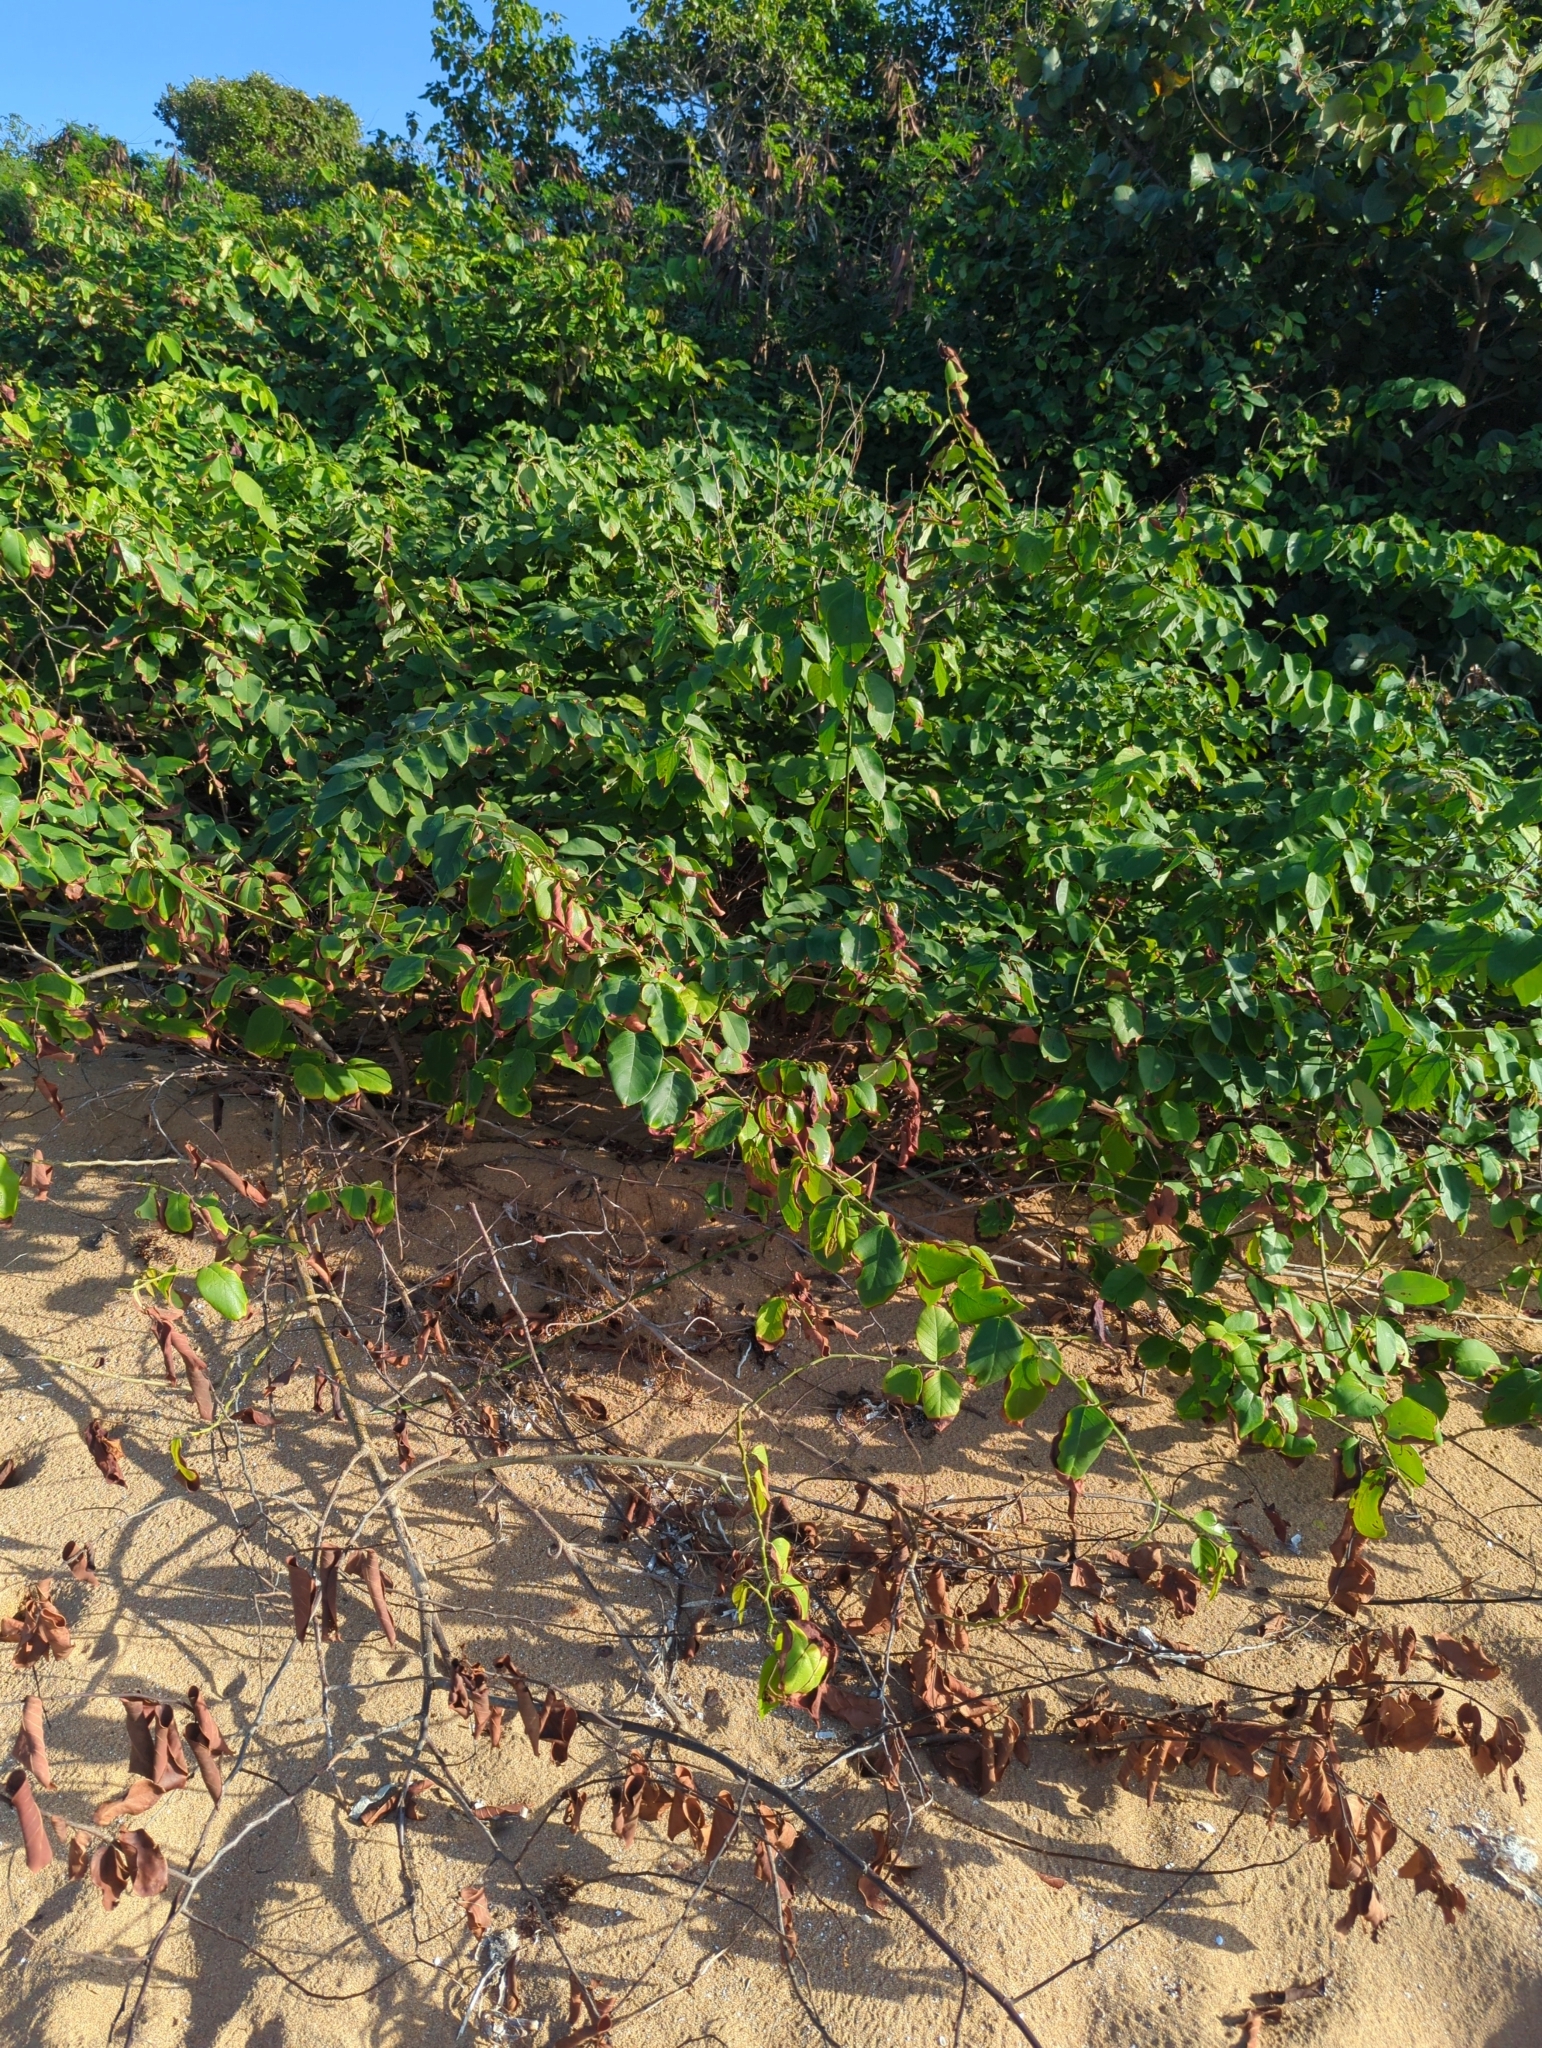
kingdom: Plantae
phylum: Tracheophyta
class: Magnoliopsida
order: Fabales
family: Fabaceae
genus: Dalbergia
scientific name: Dalbergia ecastaphyllum
